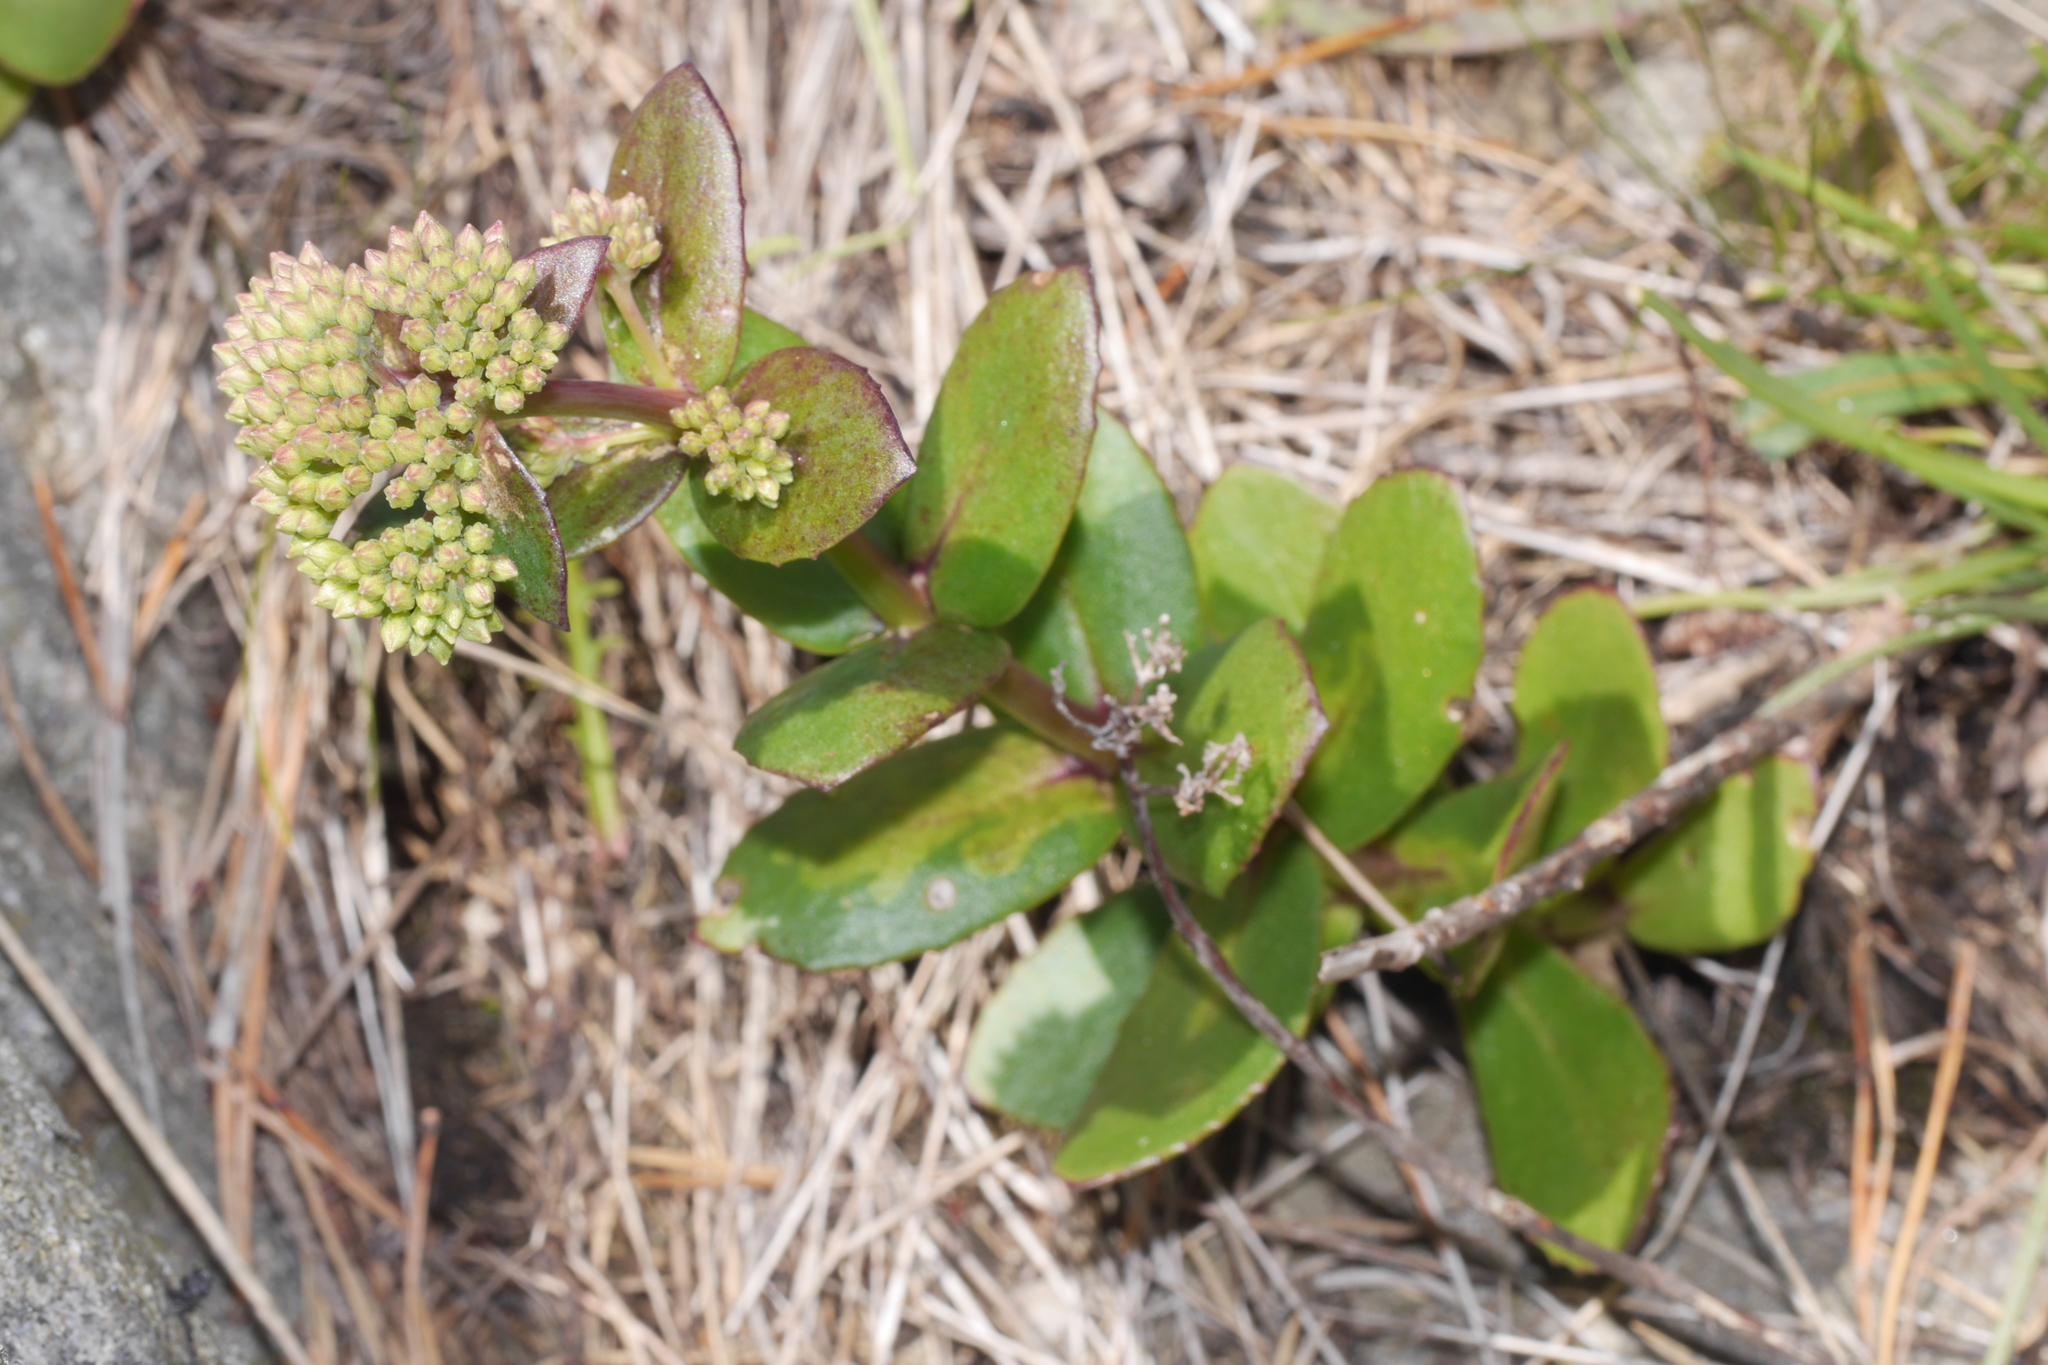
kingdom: Plantae
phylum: Tracheophyta
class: Magnoliopsida
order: Saxifragales
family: Crassulaceae
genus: Hylotelephium
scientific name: Hylotelephium maximum
